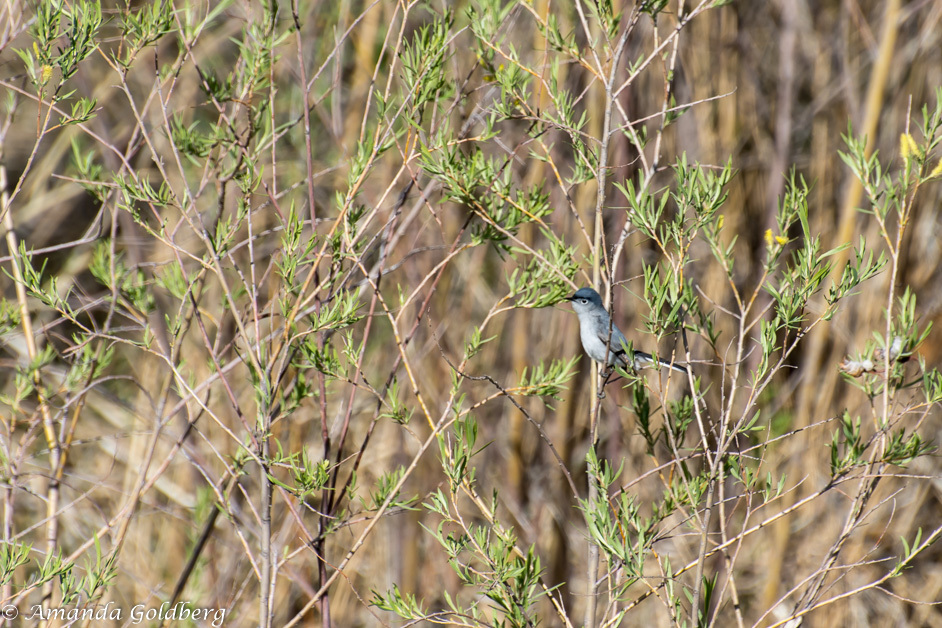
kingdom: Animalia
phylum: Chordata
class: Aves
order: Passeriformes
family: Polioptilidae
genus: Polioptila
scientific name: Polioptila caerulea
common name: Blue-gray gnatcatcher
